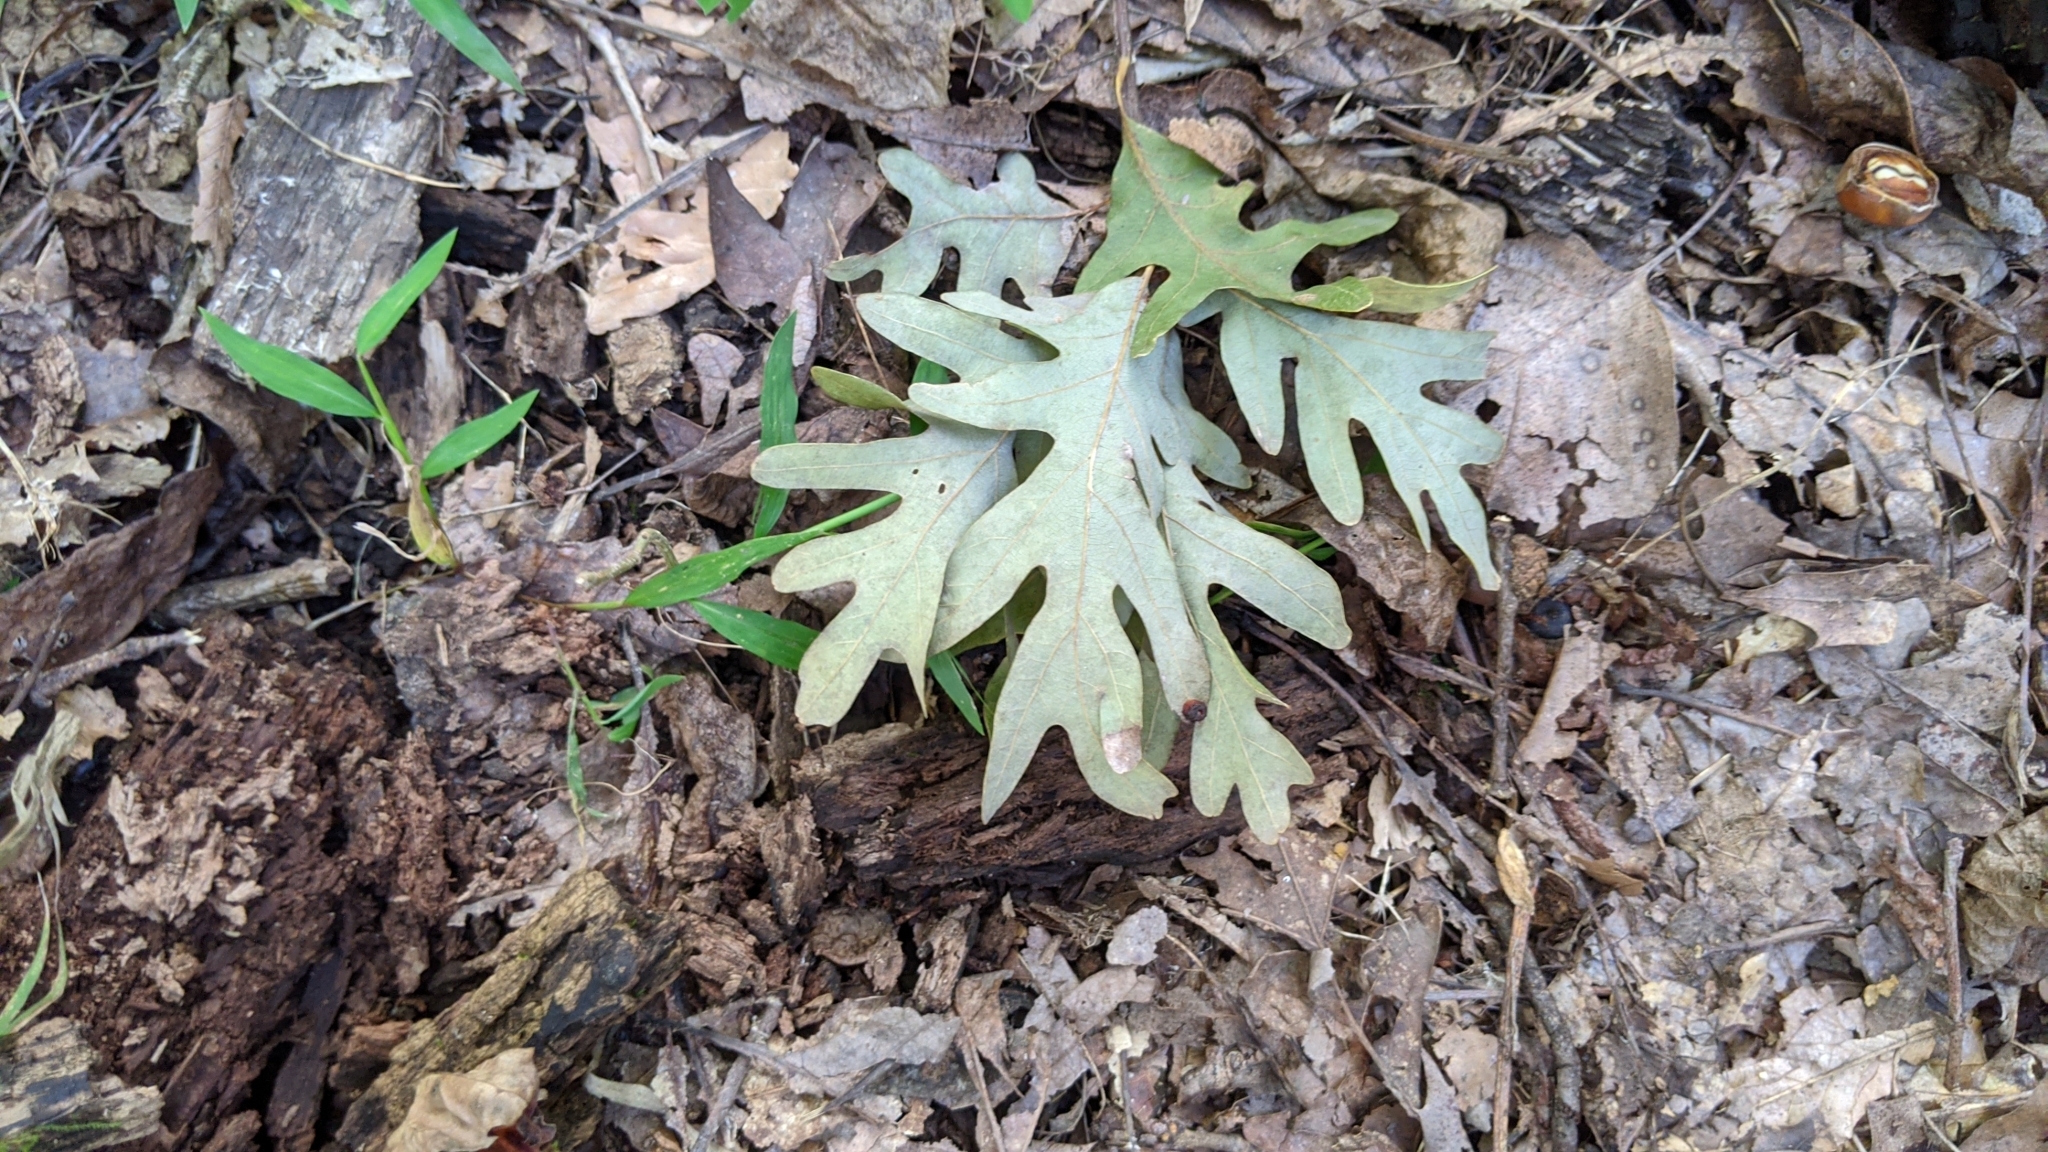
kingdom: Plantae
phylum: Tracheophyta
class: Magnoliopsida
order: Fagales
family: Fagaceae
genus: Quercus
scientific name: Quercus alba
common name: White oak
